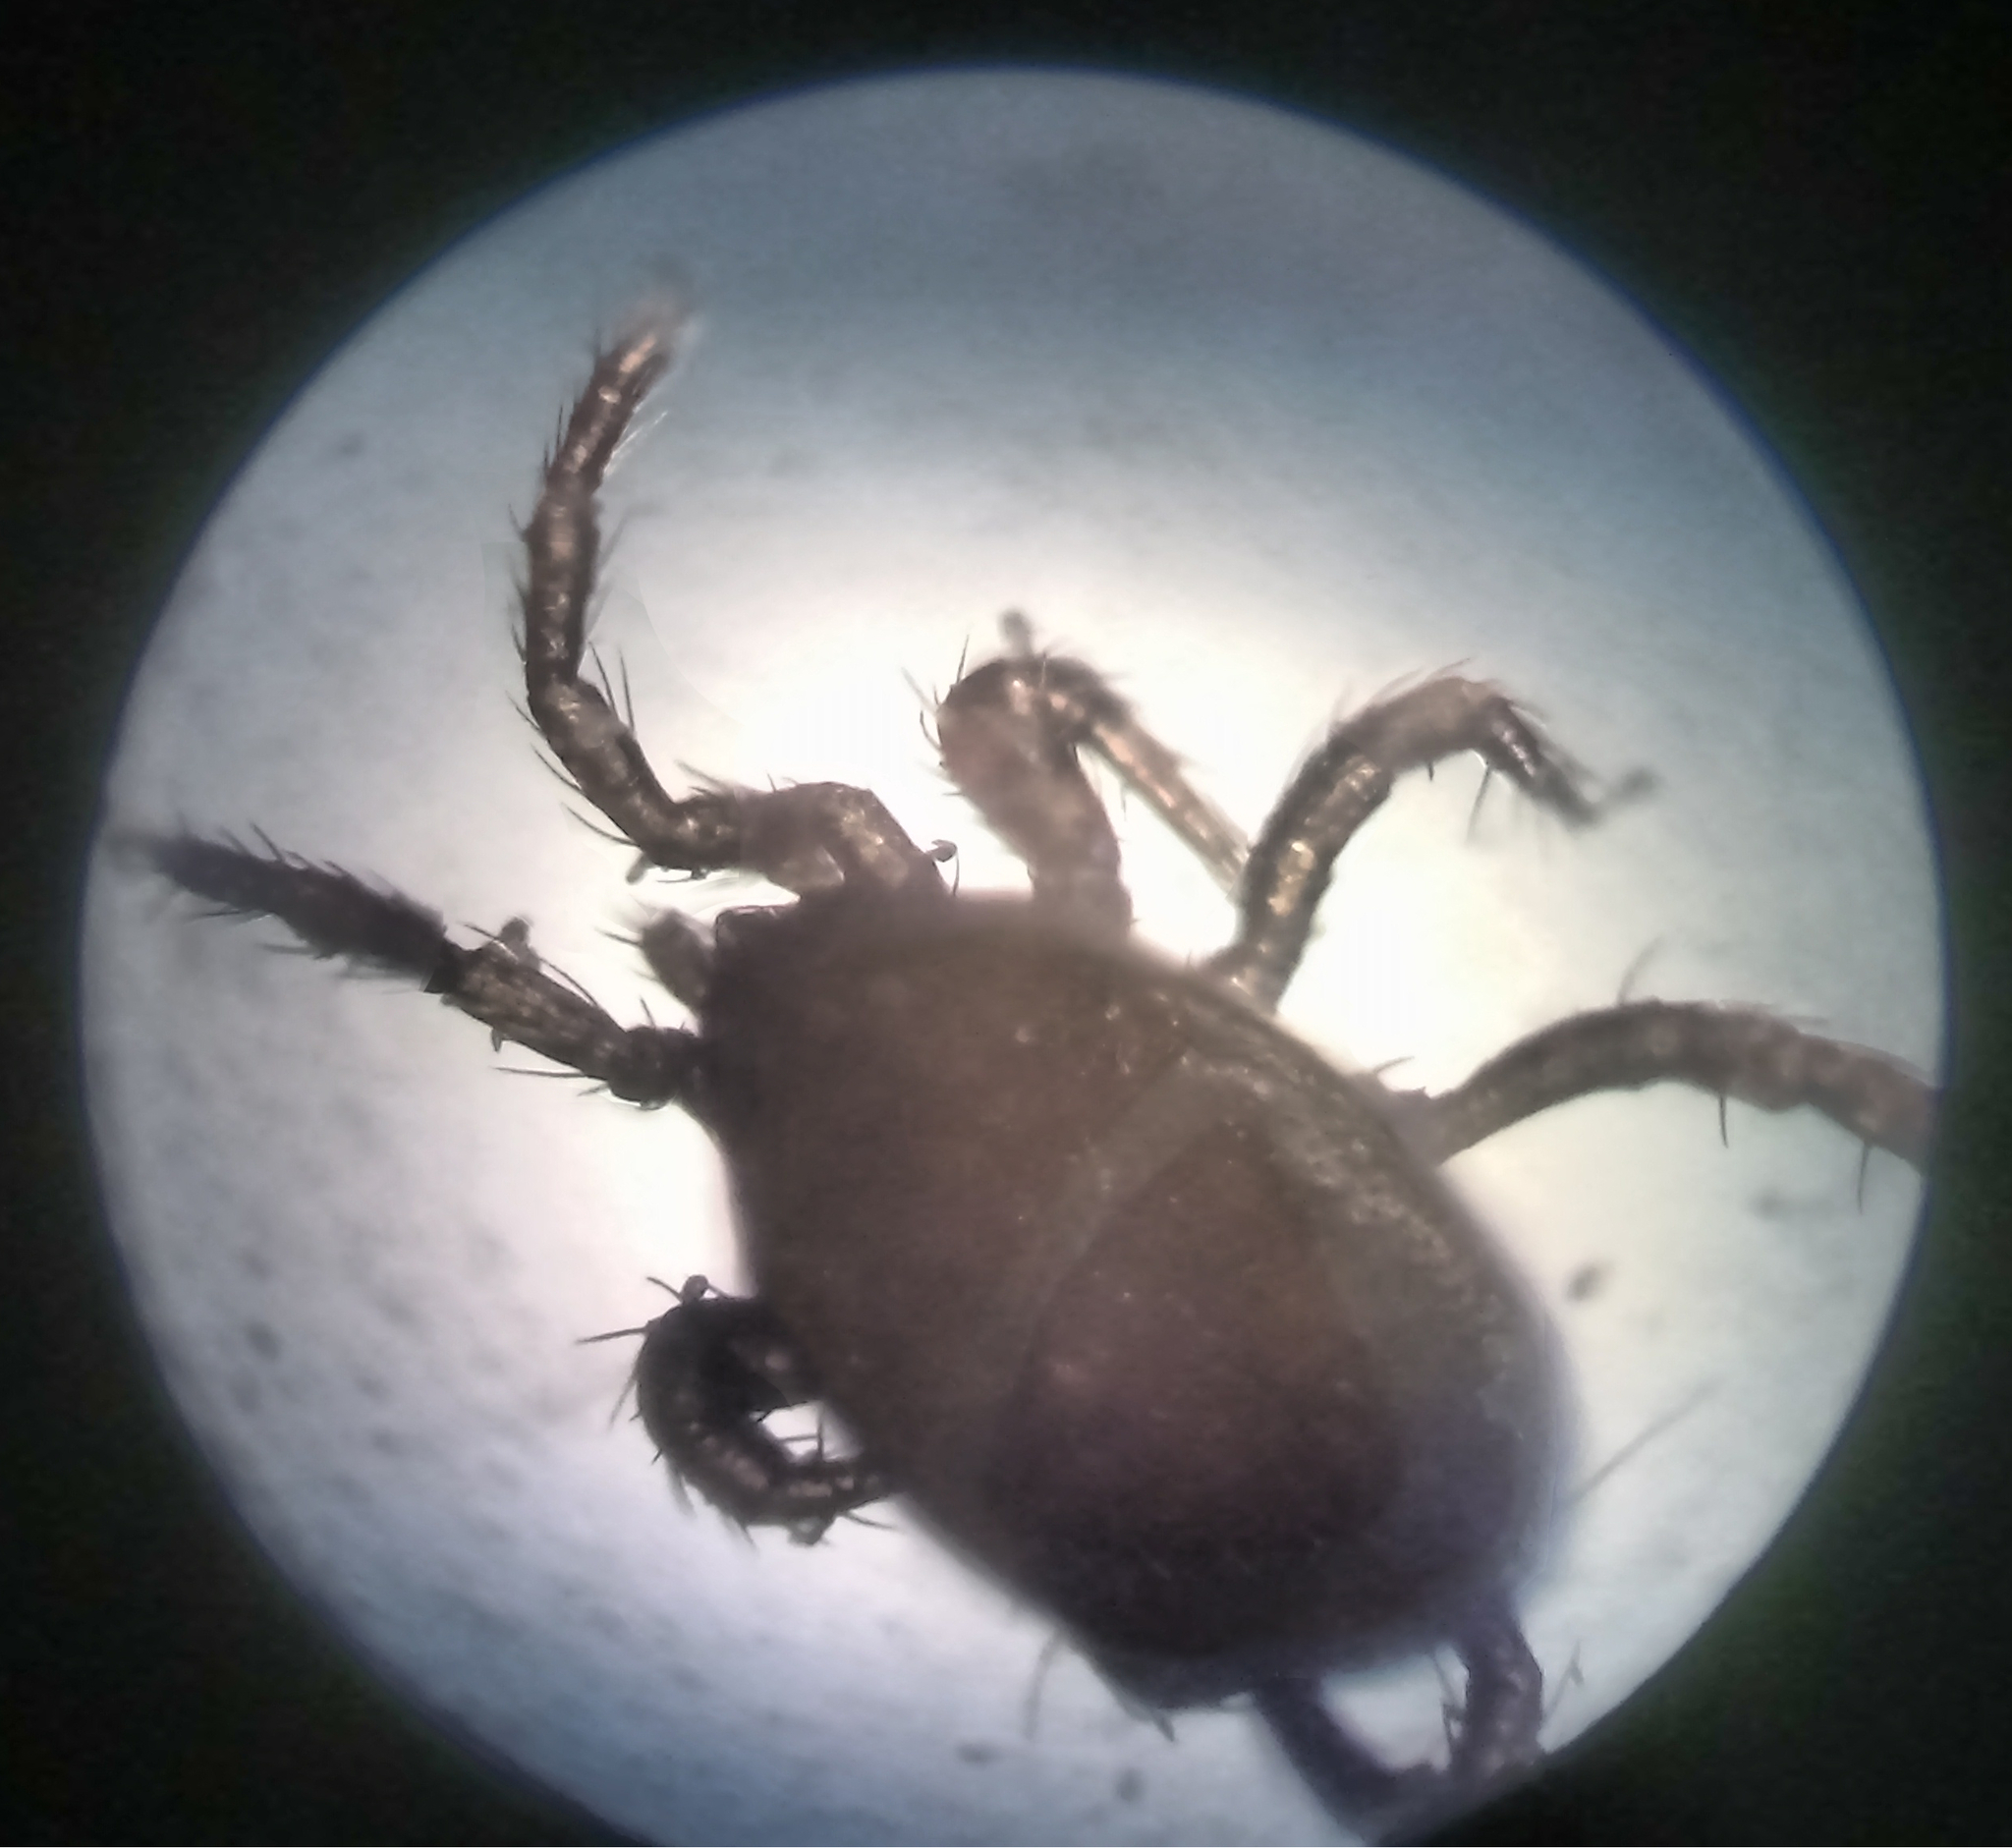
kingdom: Animalia
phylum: Arthropoda
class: Arachnida
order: Mesostigmata
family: Parasitidae
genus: Parasitellus
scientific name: Parasitellus fucorum
